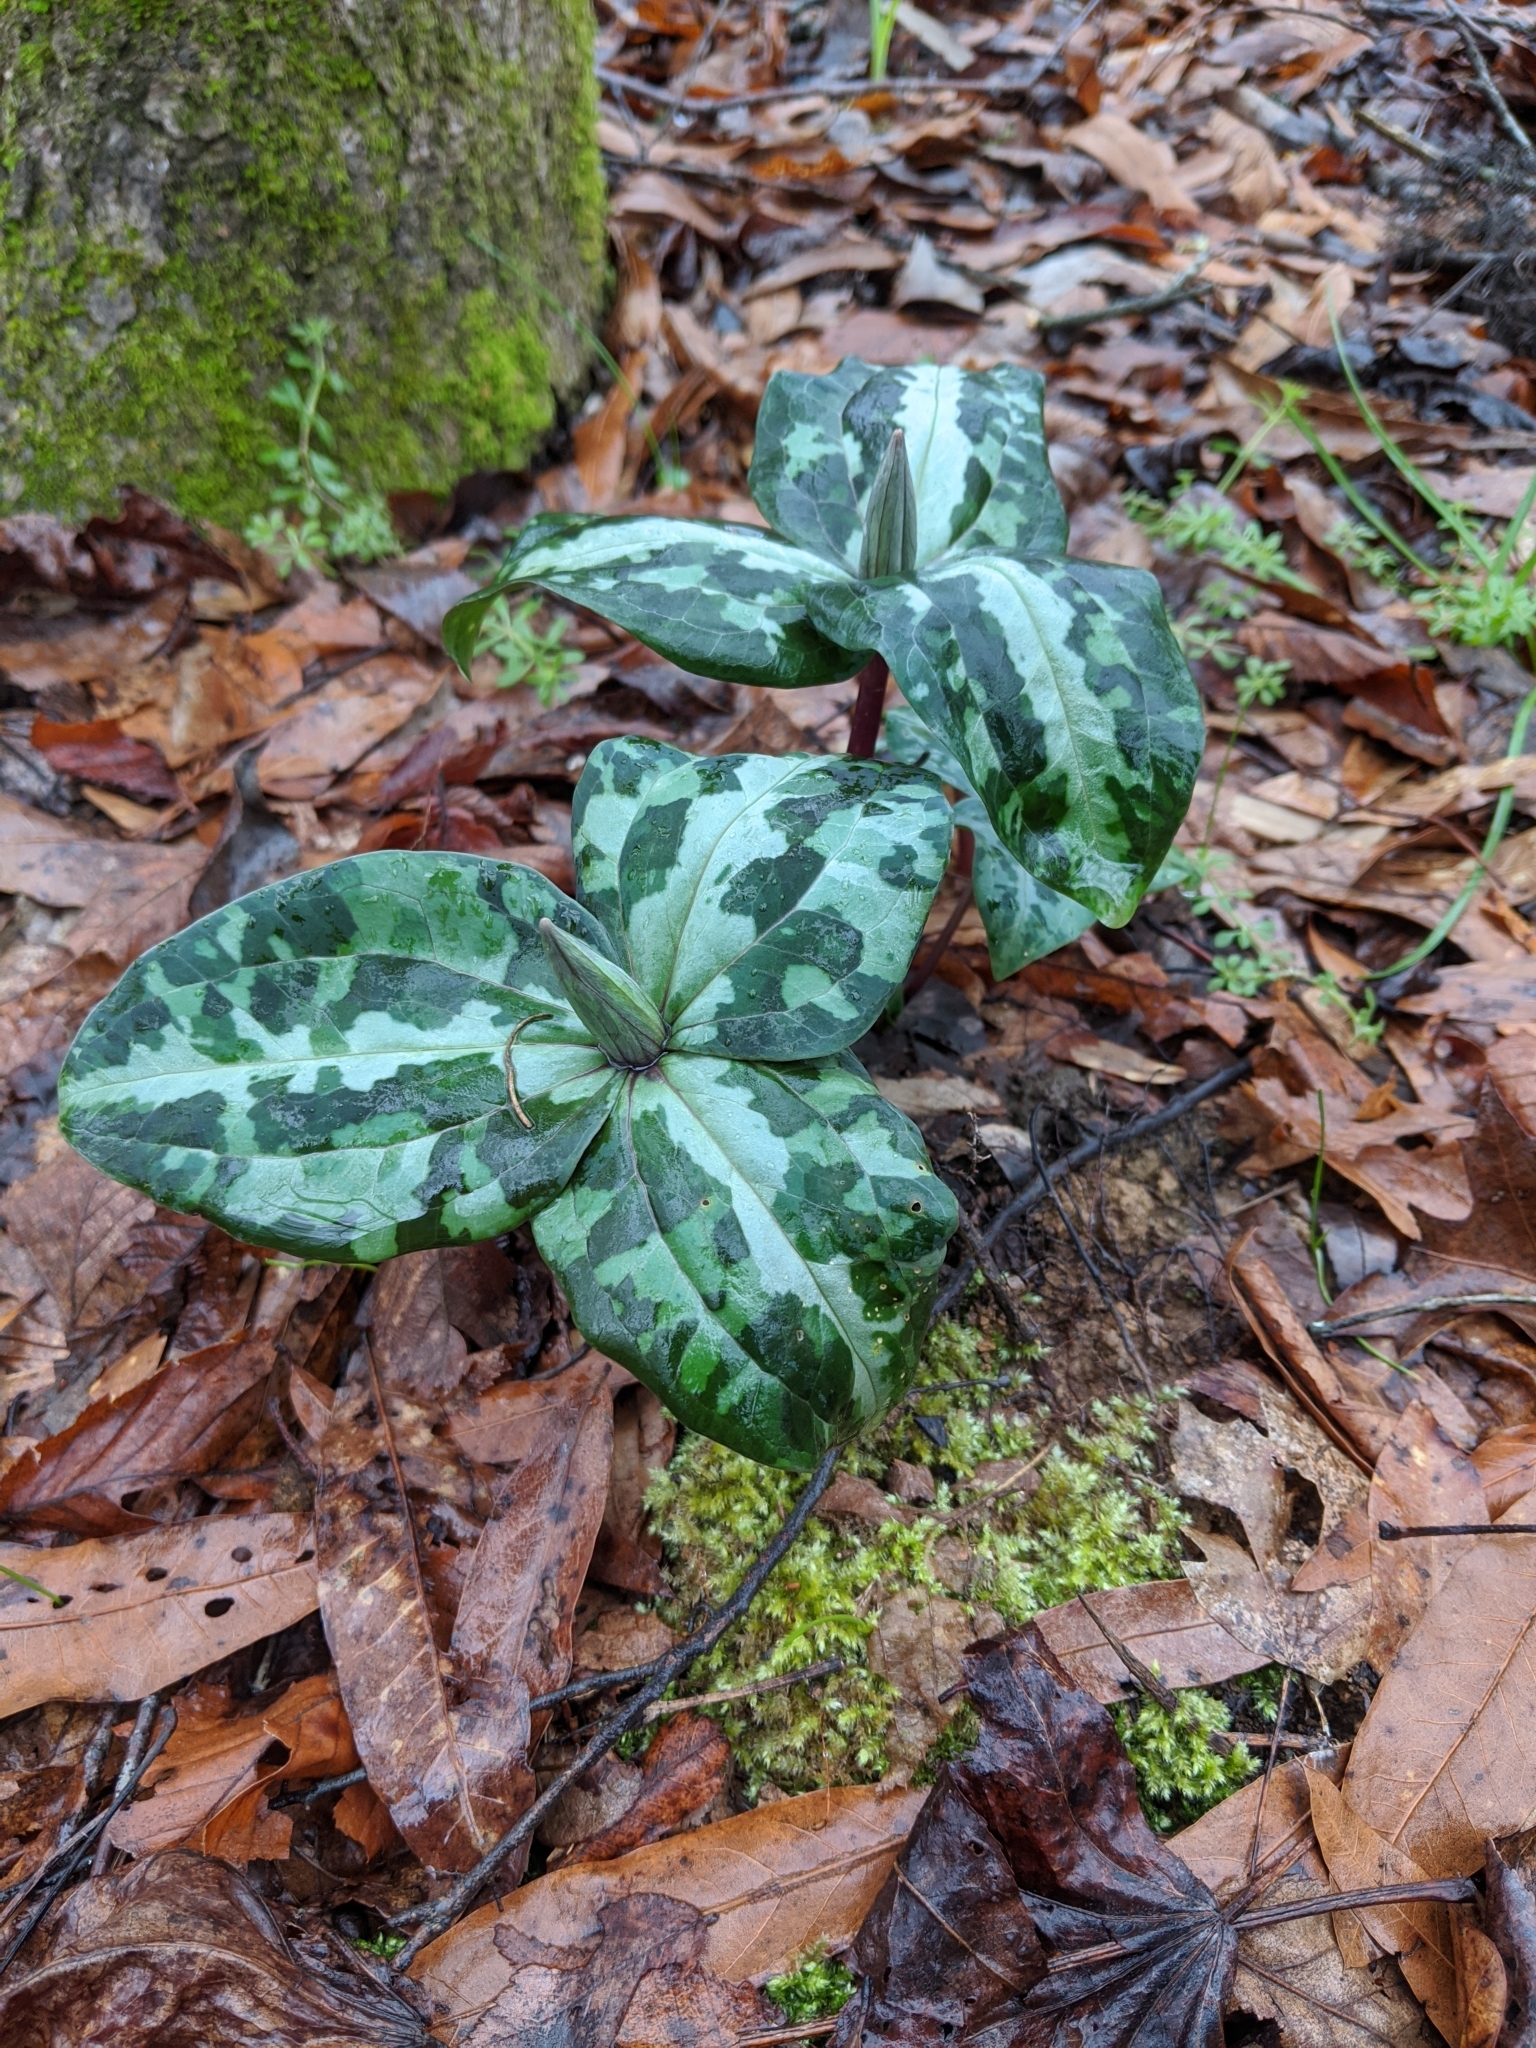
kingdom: Plantae
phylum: Tracheophyta
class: Liliopsida
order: Liliales
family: Melanthiaceae
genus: Trillium
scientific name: Trillium underwoodii
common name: Longbract wakerobin
